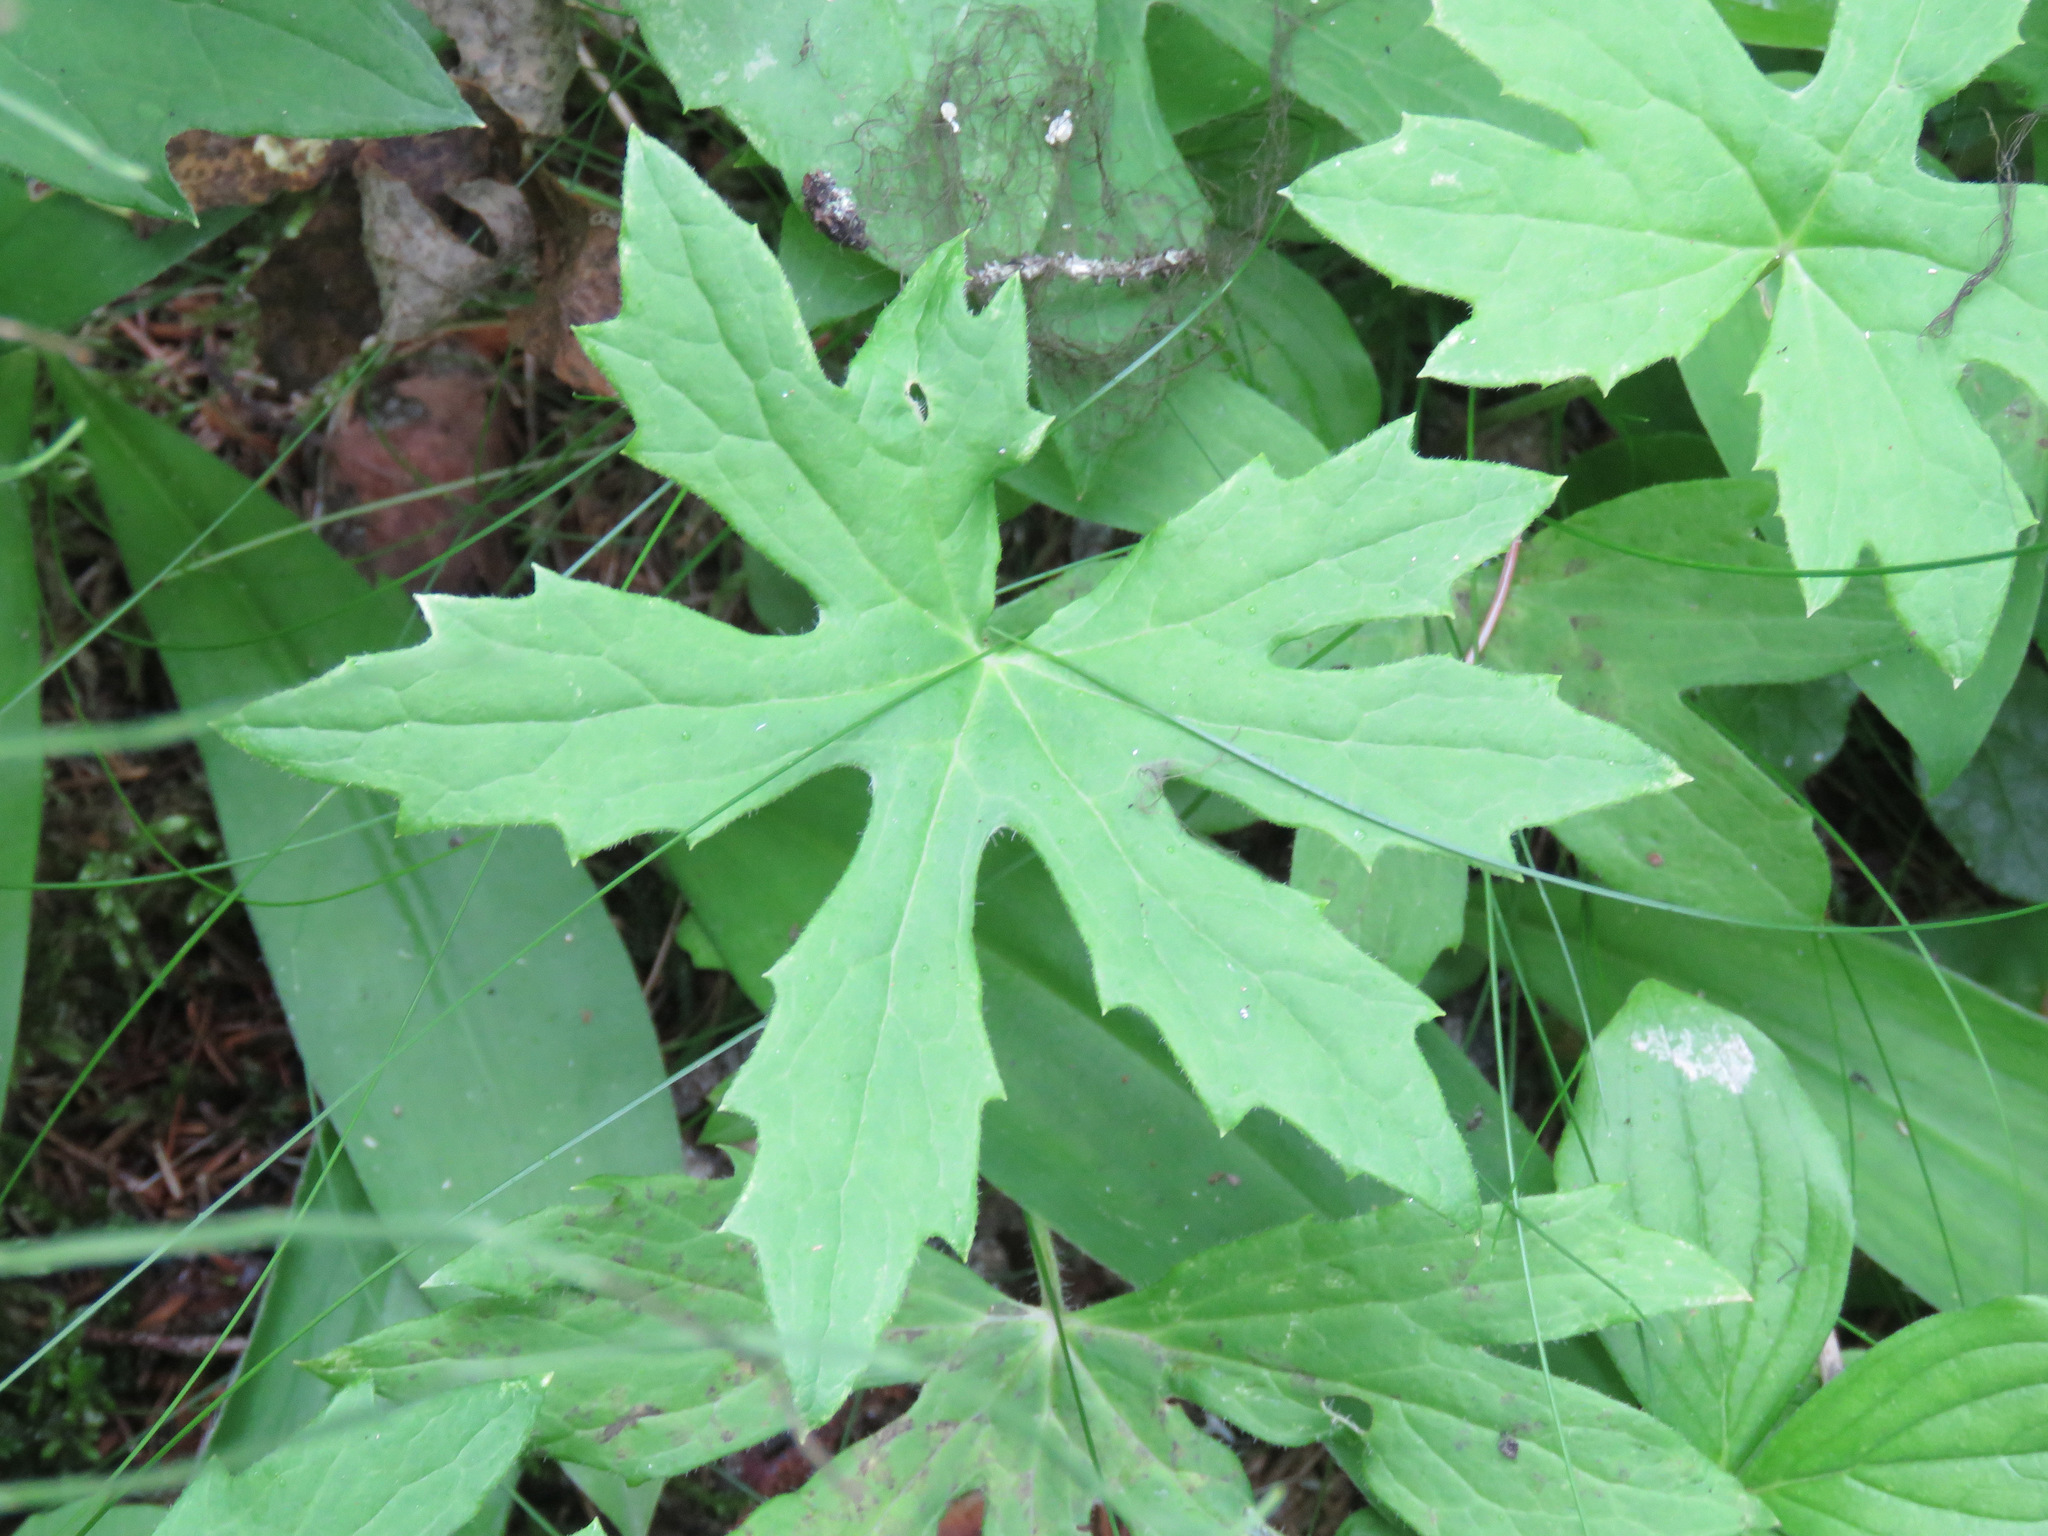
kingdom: Plantae
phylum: Tracheophyta
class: Magnoliopsida
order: Asterales
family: Asteraceae
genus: Petasites
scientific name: Petasites frigidus
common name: Arctic butterbur
